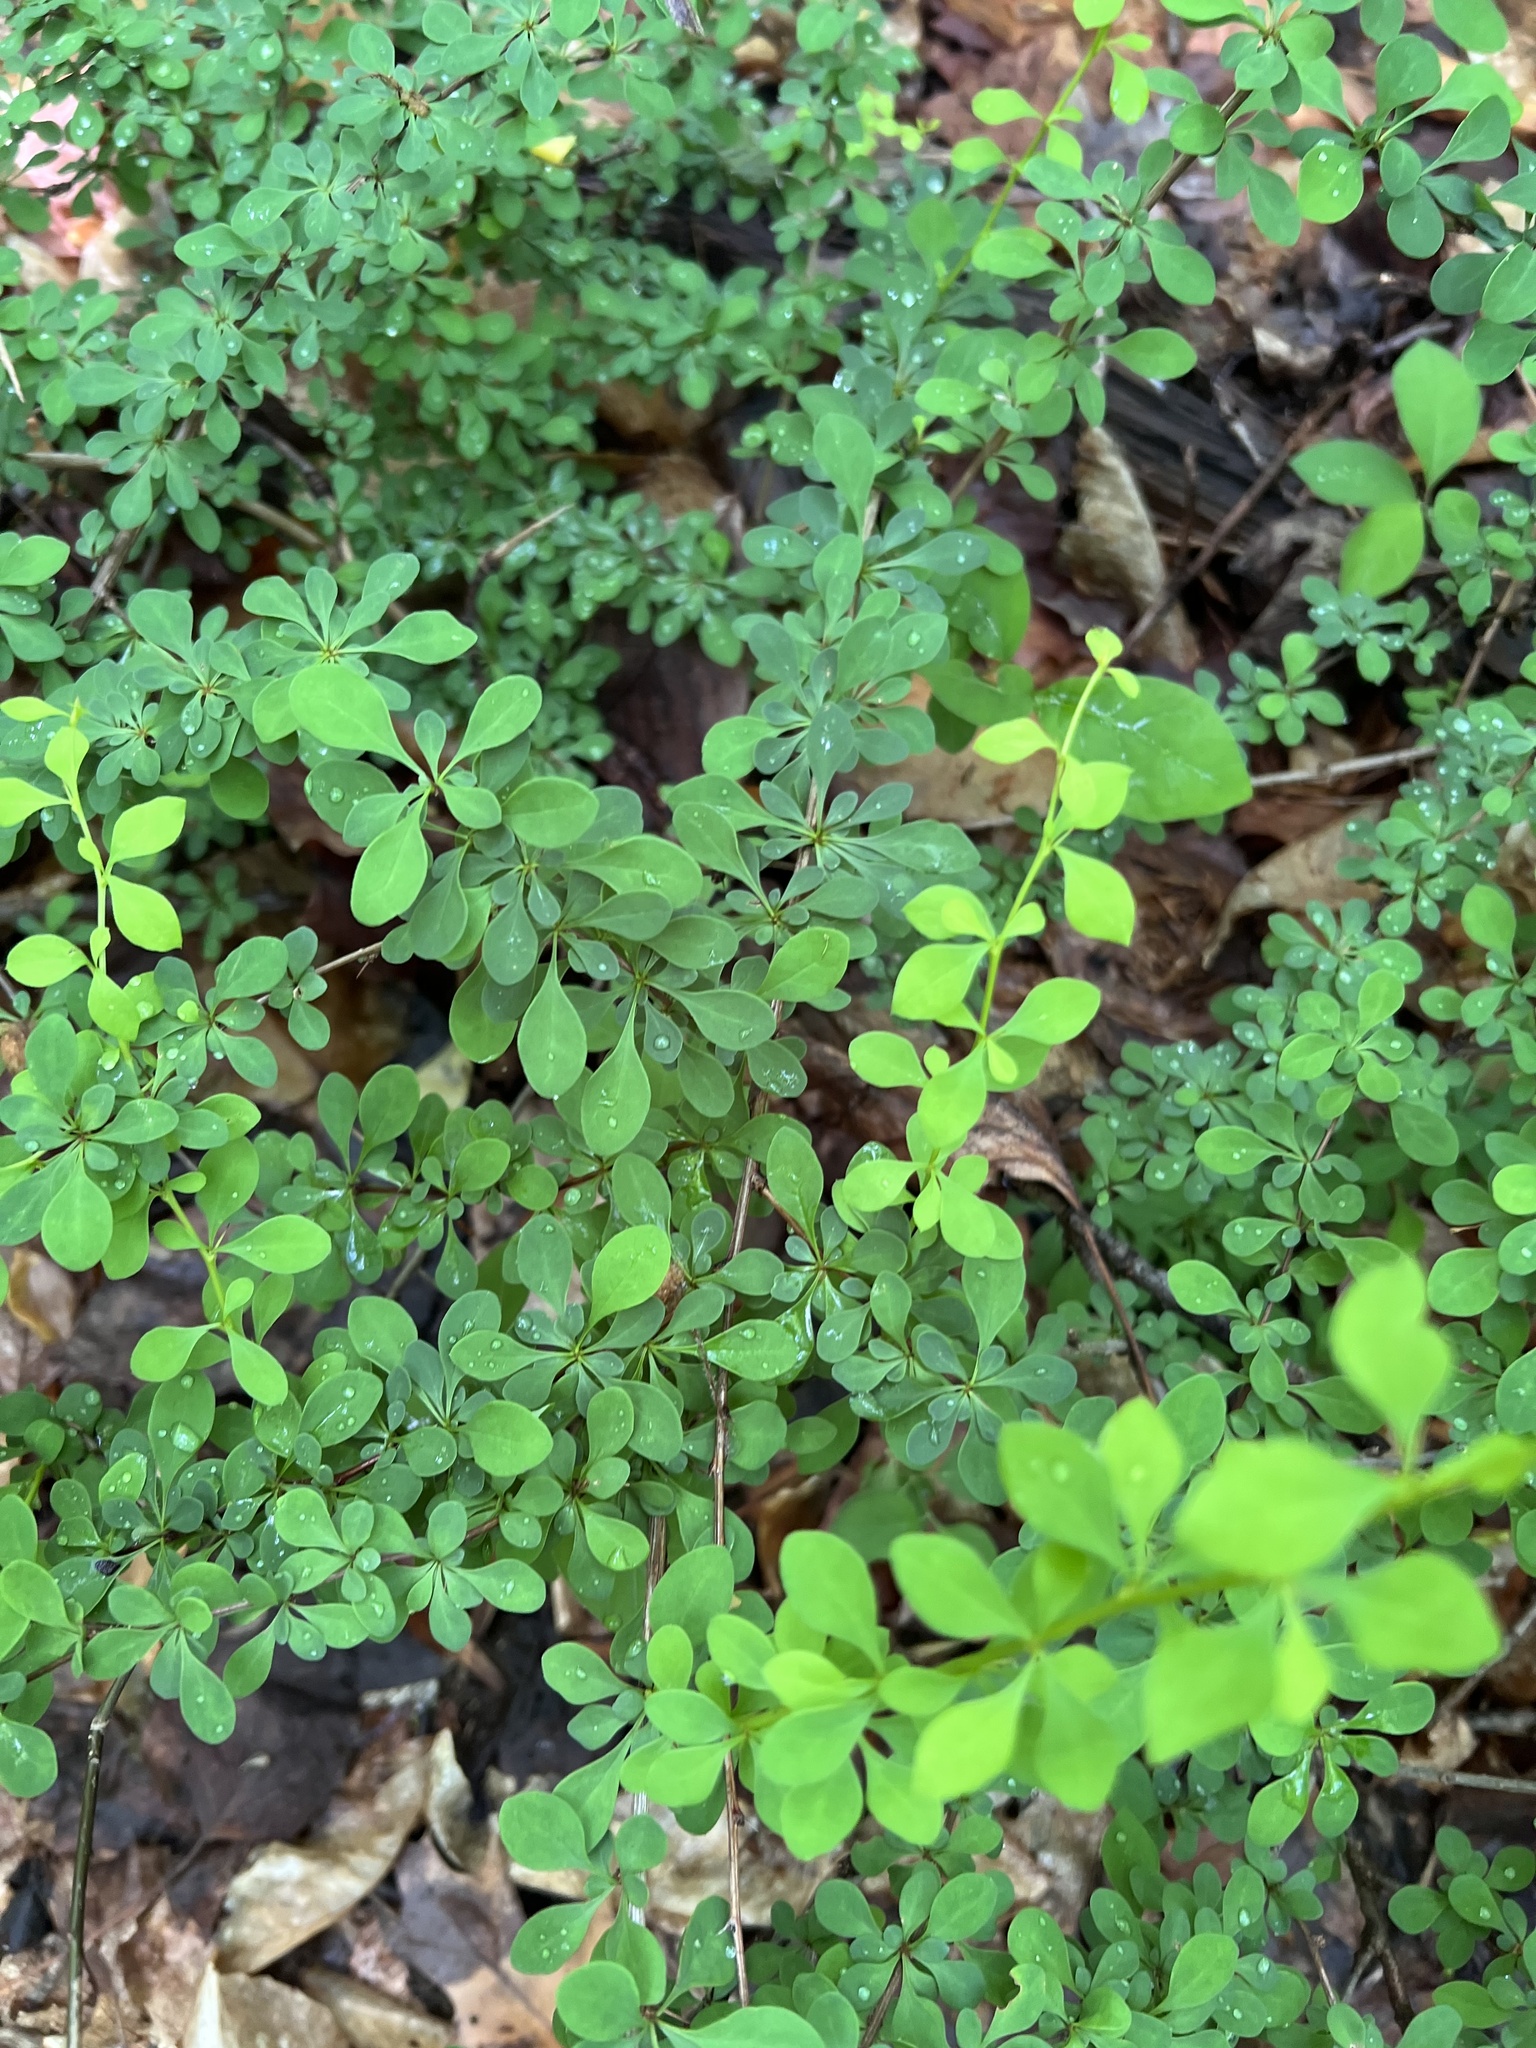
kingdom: Plantae
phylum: Tracheophyta
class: Magnoliopsida
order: Ranunculales
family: Berberidaceae
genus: Berberis
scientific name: Berberis thunbergii
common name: Japanese barberry
